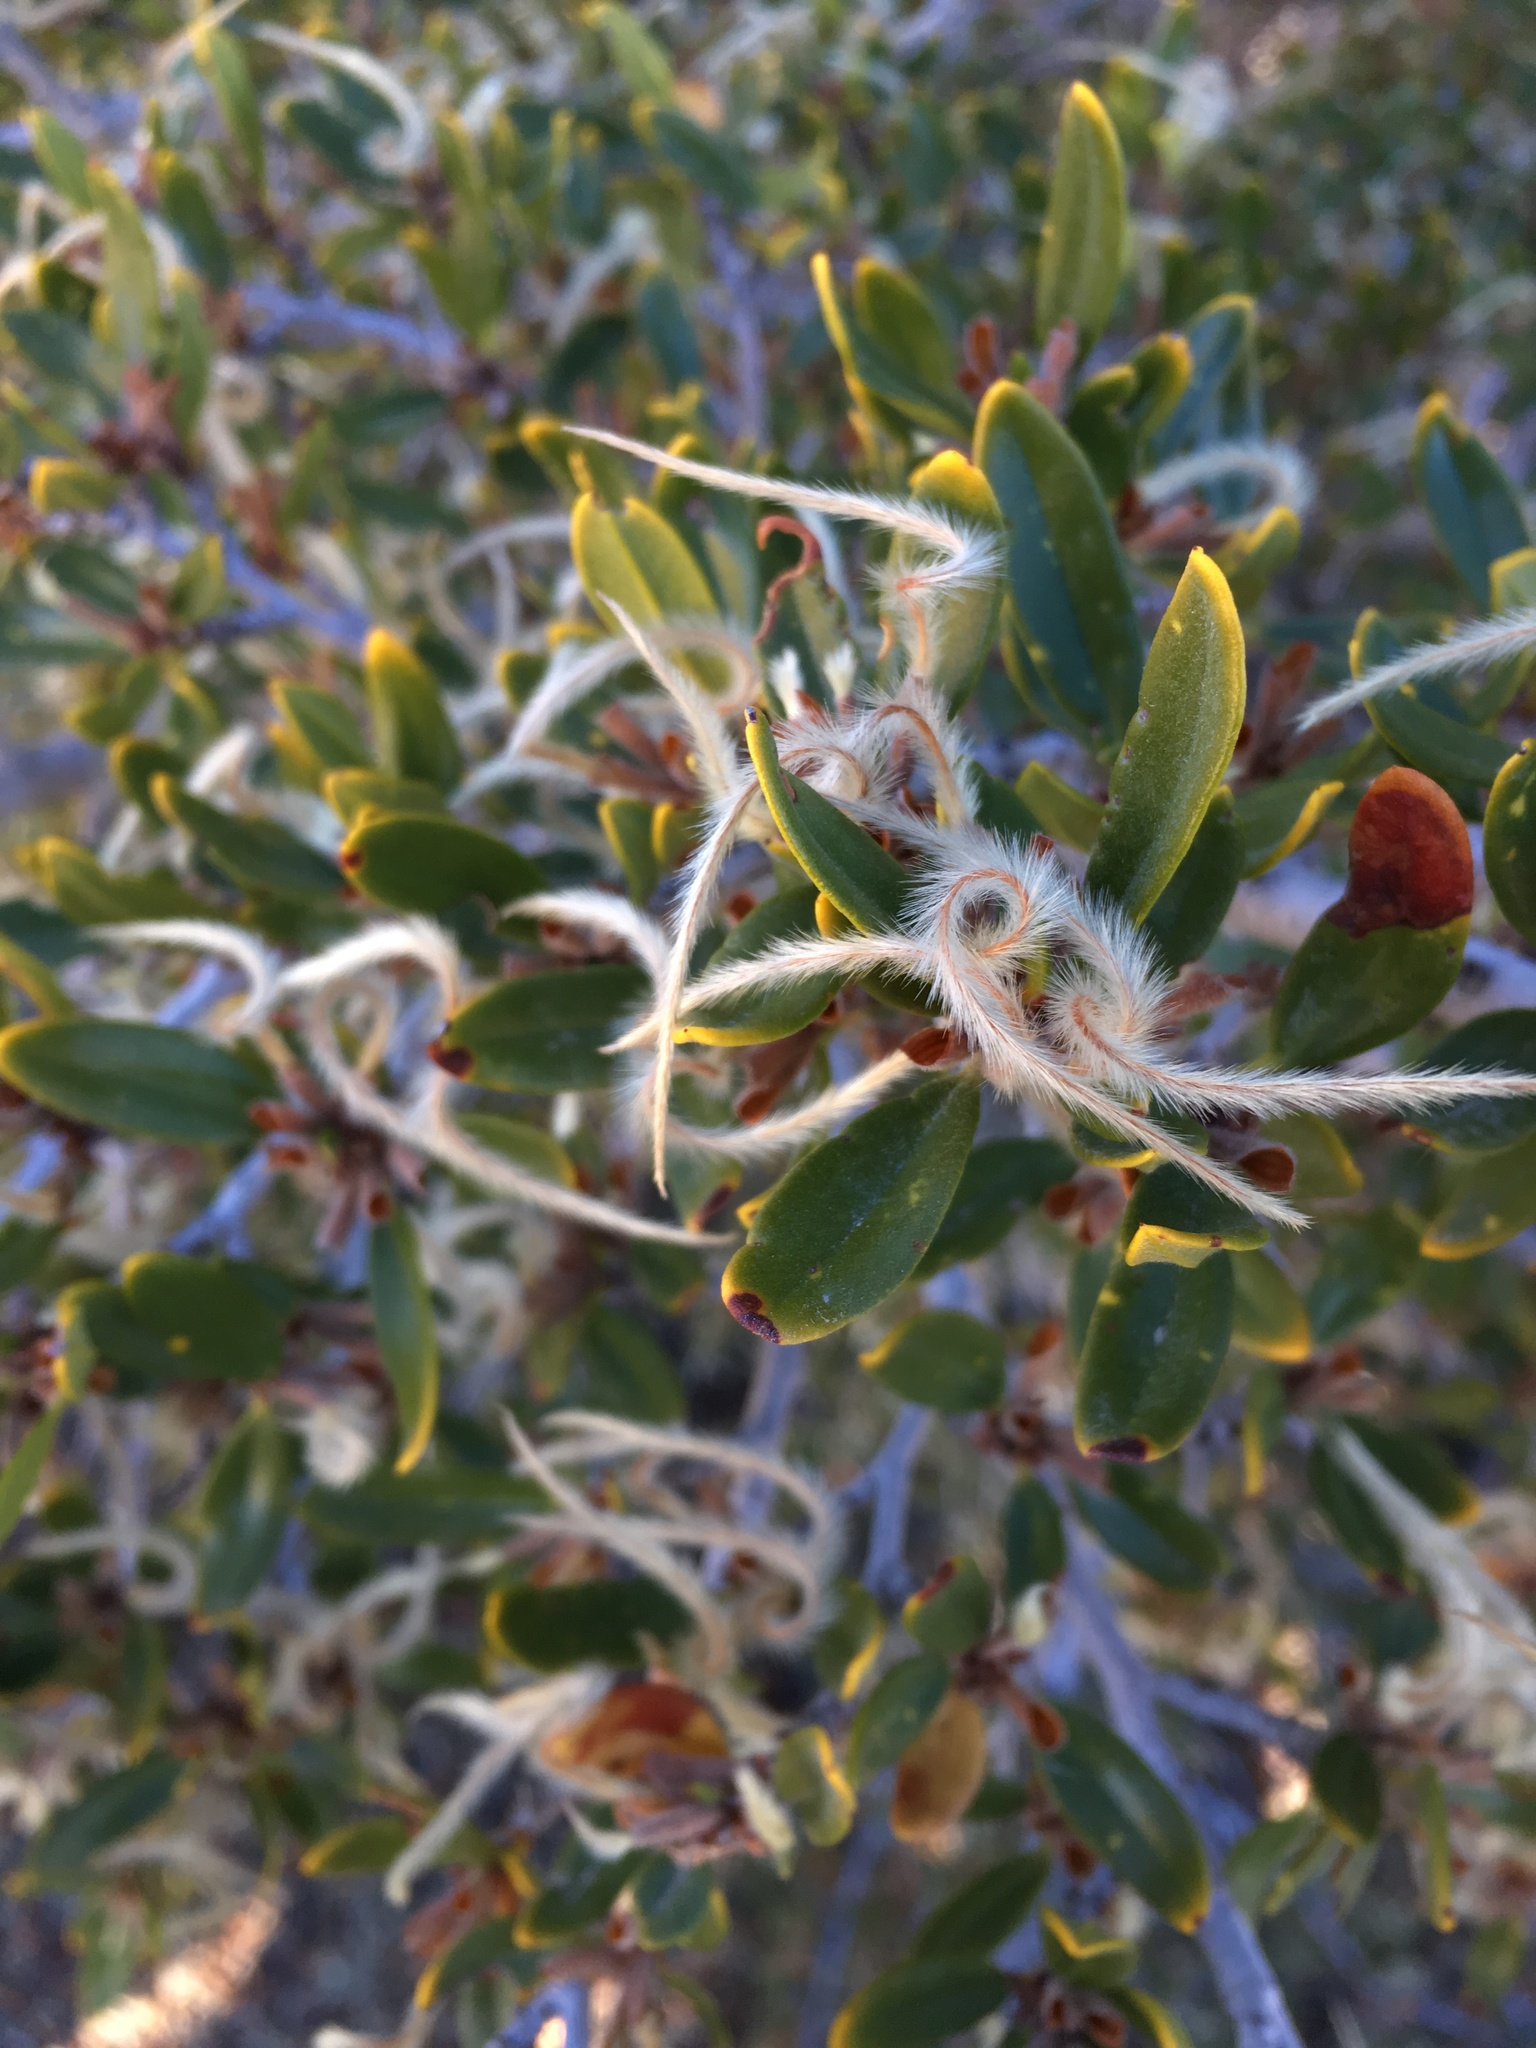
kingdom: Plantae
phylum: Tracheophyta
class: Magnoliopsida
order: Rosales
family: Rosaceae
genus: Cercocarpus
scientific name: Cercocarpus ledifolius
